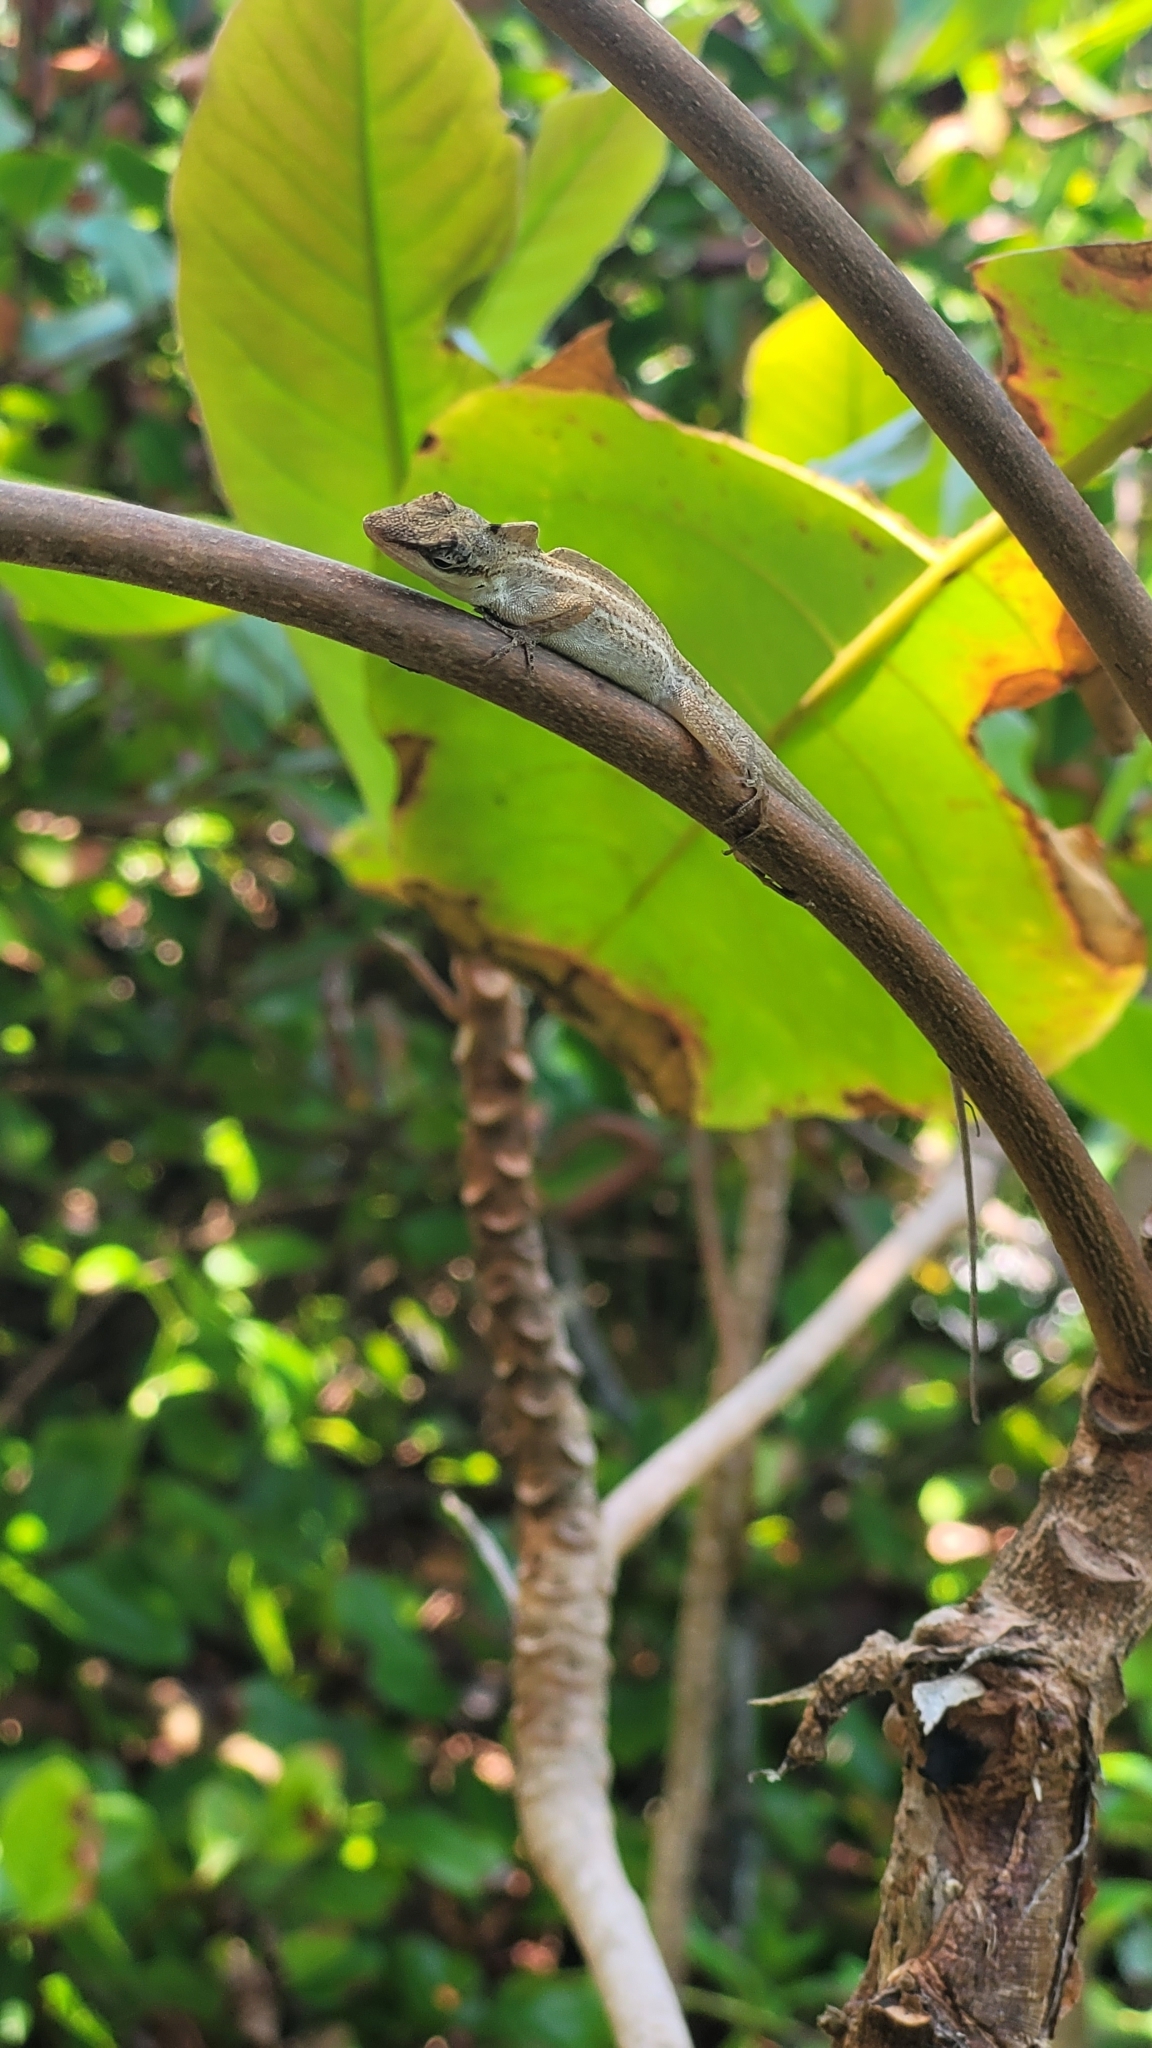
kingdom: Animalia
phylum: Chordata
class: Squamata
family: Dactyloidae
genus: Anolis
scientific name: Anolis unilobatus
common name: Blue-spotted fan anole
